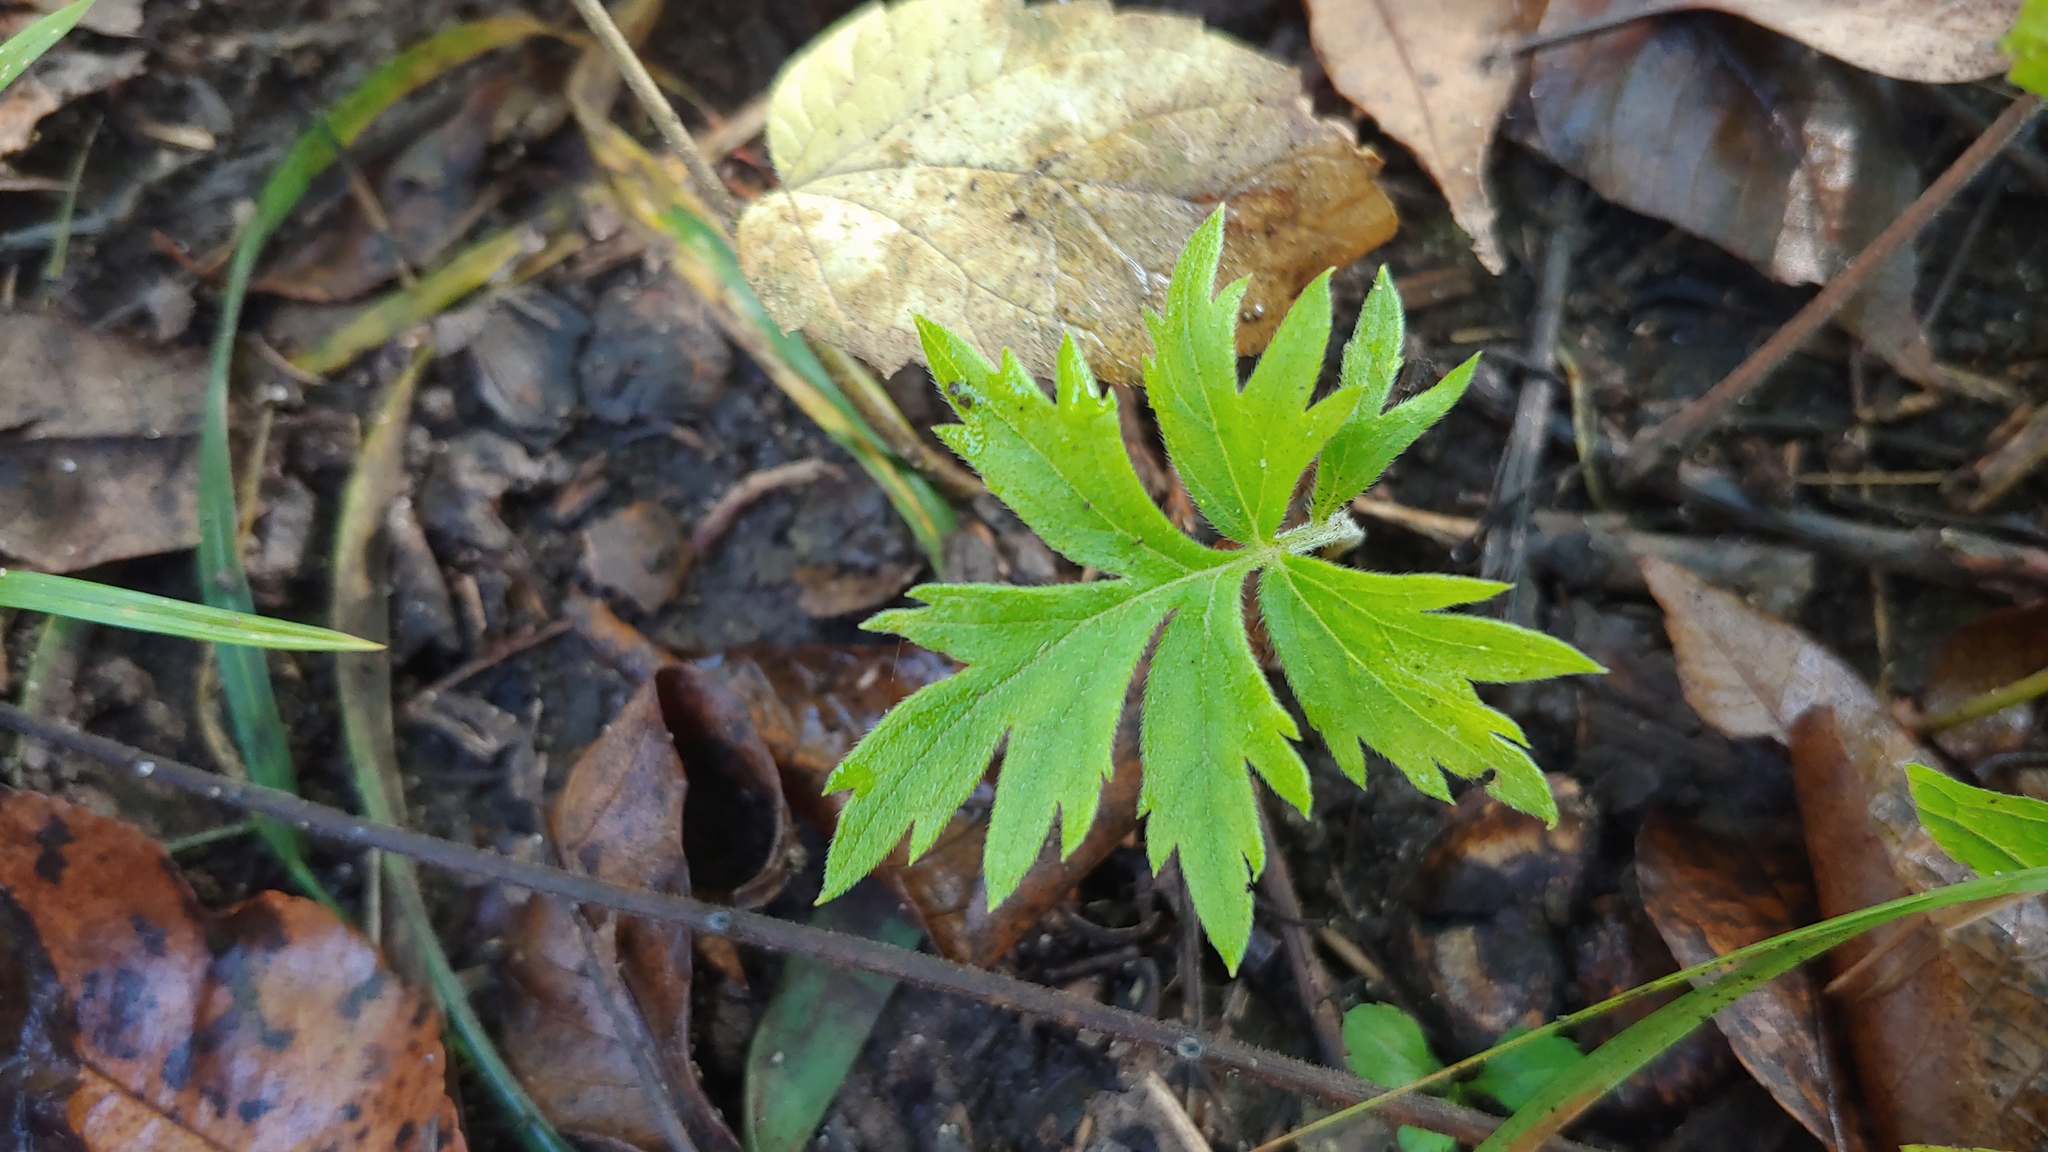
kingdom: Plantae
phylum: Tracheophyta
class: Magnoliopsida
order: Boraginales
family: Hydrophyllaceae
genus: Hydrophyllum
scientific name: Hydrophyllum virginianum
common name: Virginia waterleaf
